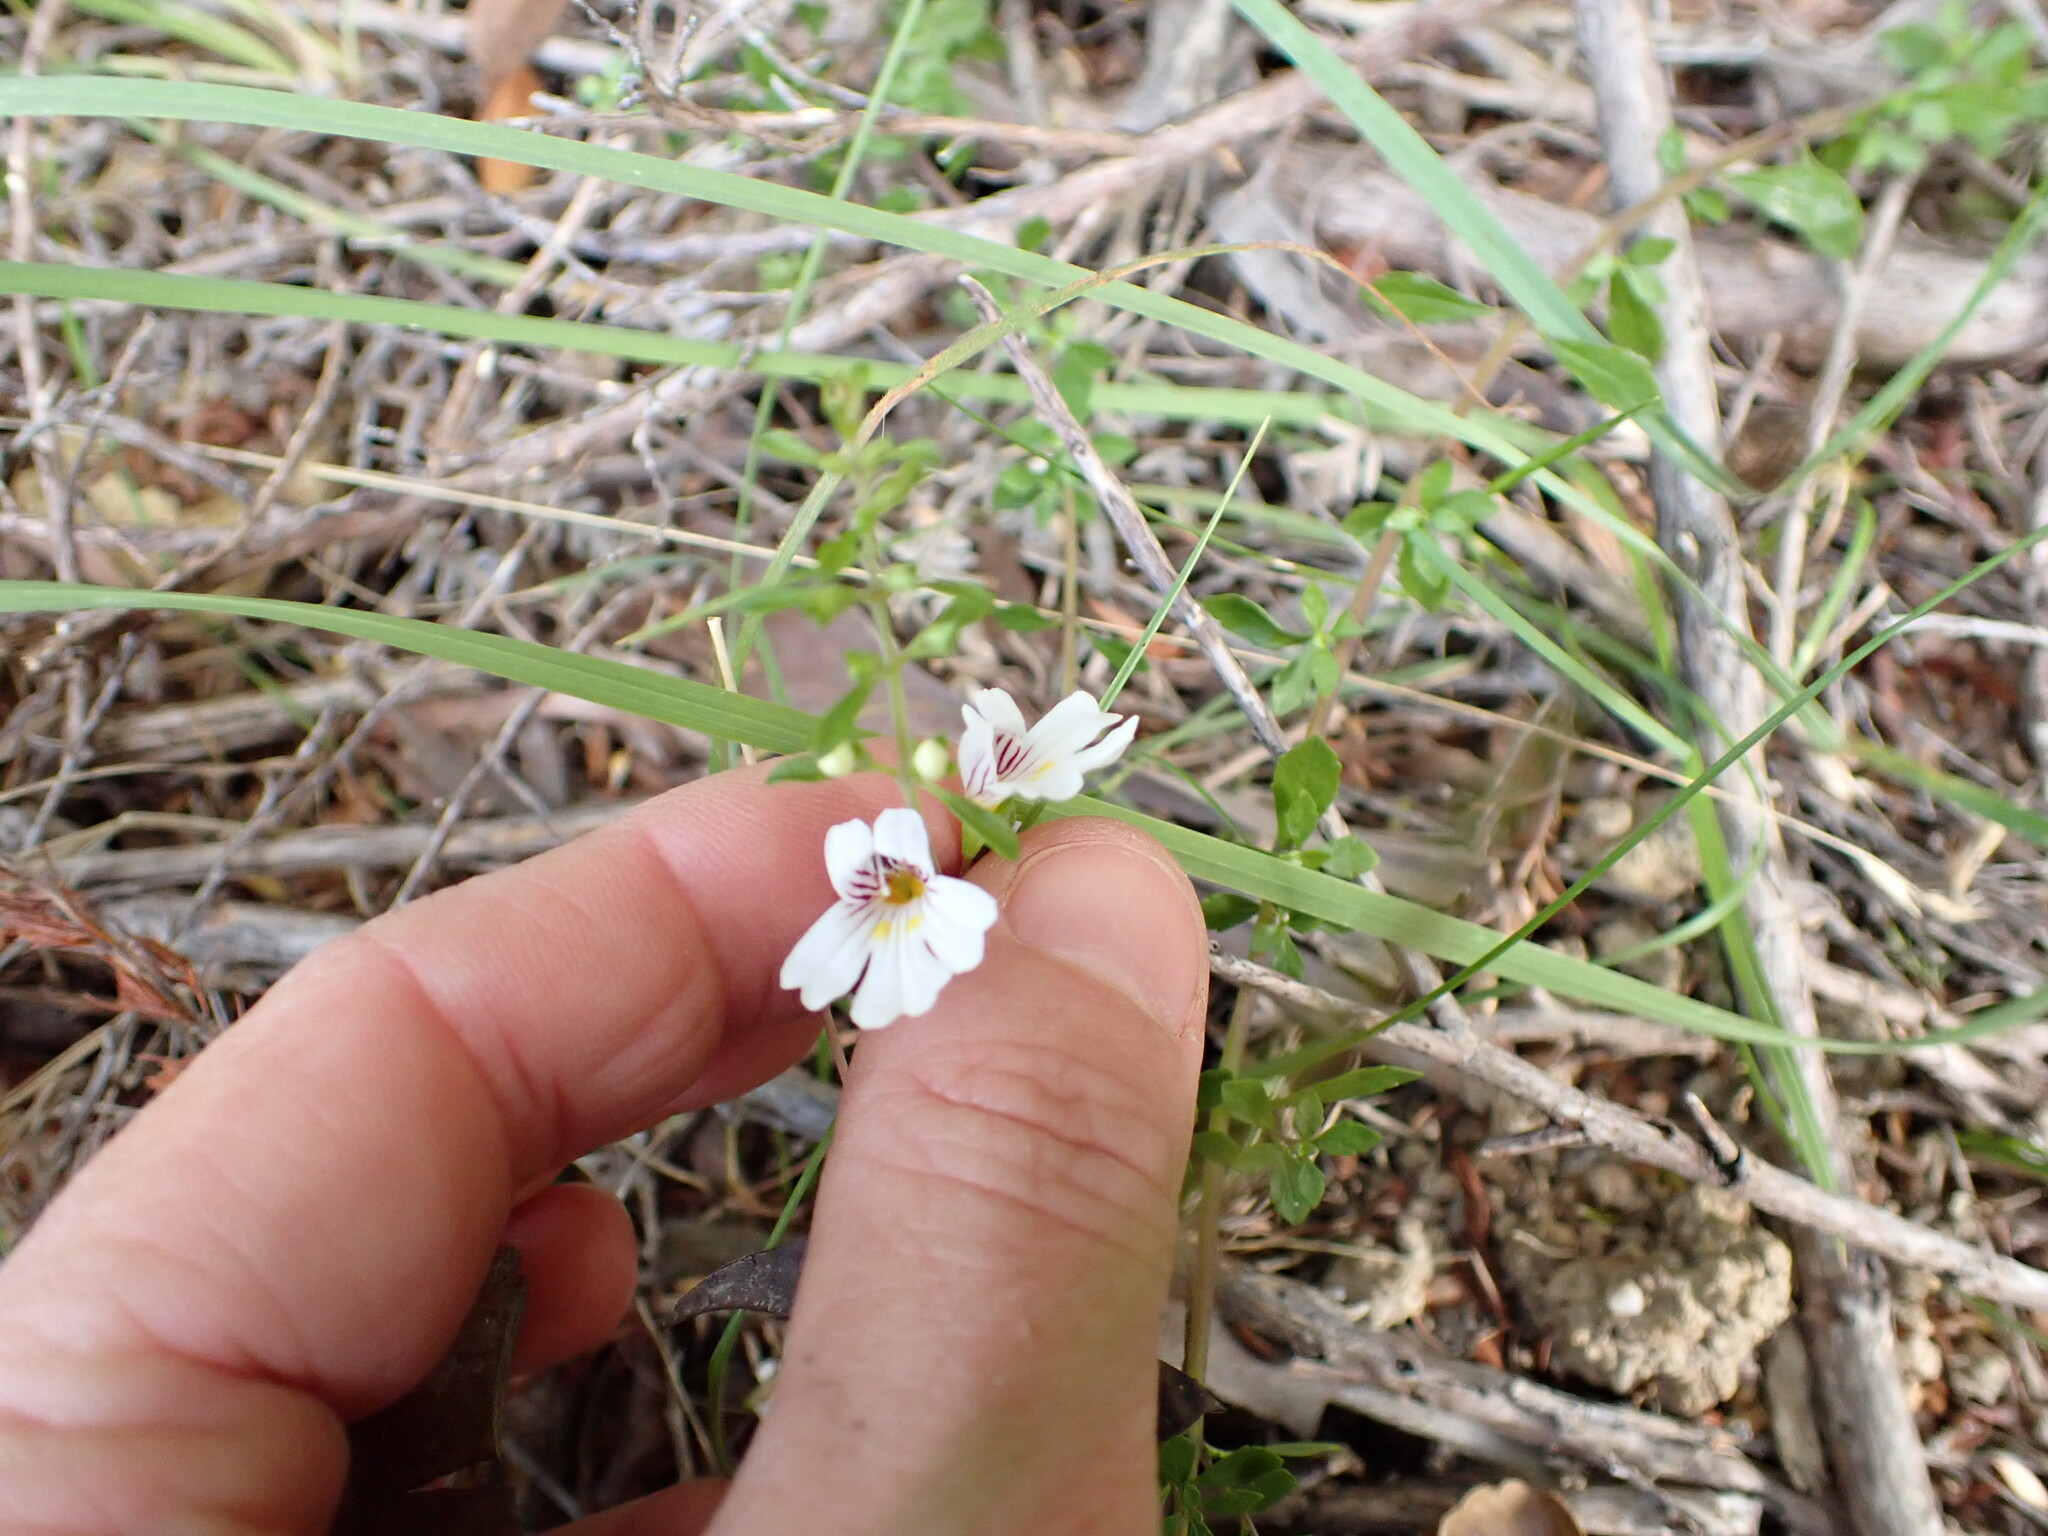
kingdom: Plantae
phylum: Tracheophyta
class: Magnoliopsida
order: Lamiales
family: Orobanchaceae
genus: Euphrasia
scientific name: Euphrasia cuneata
